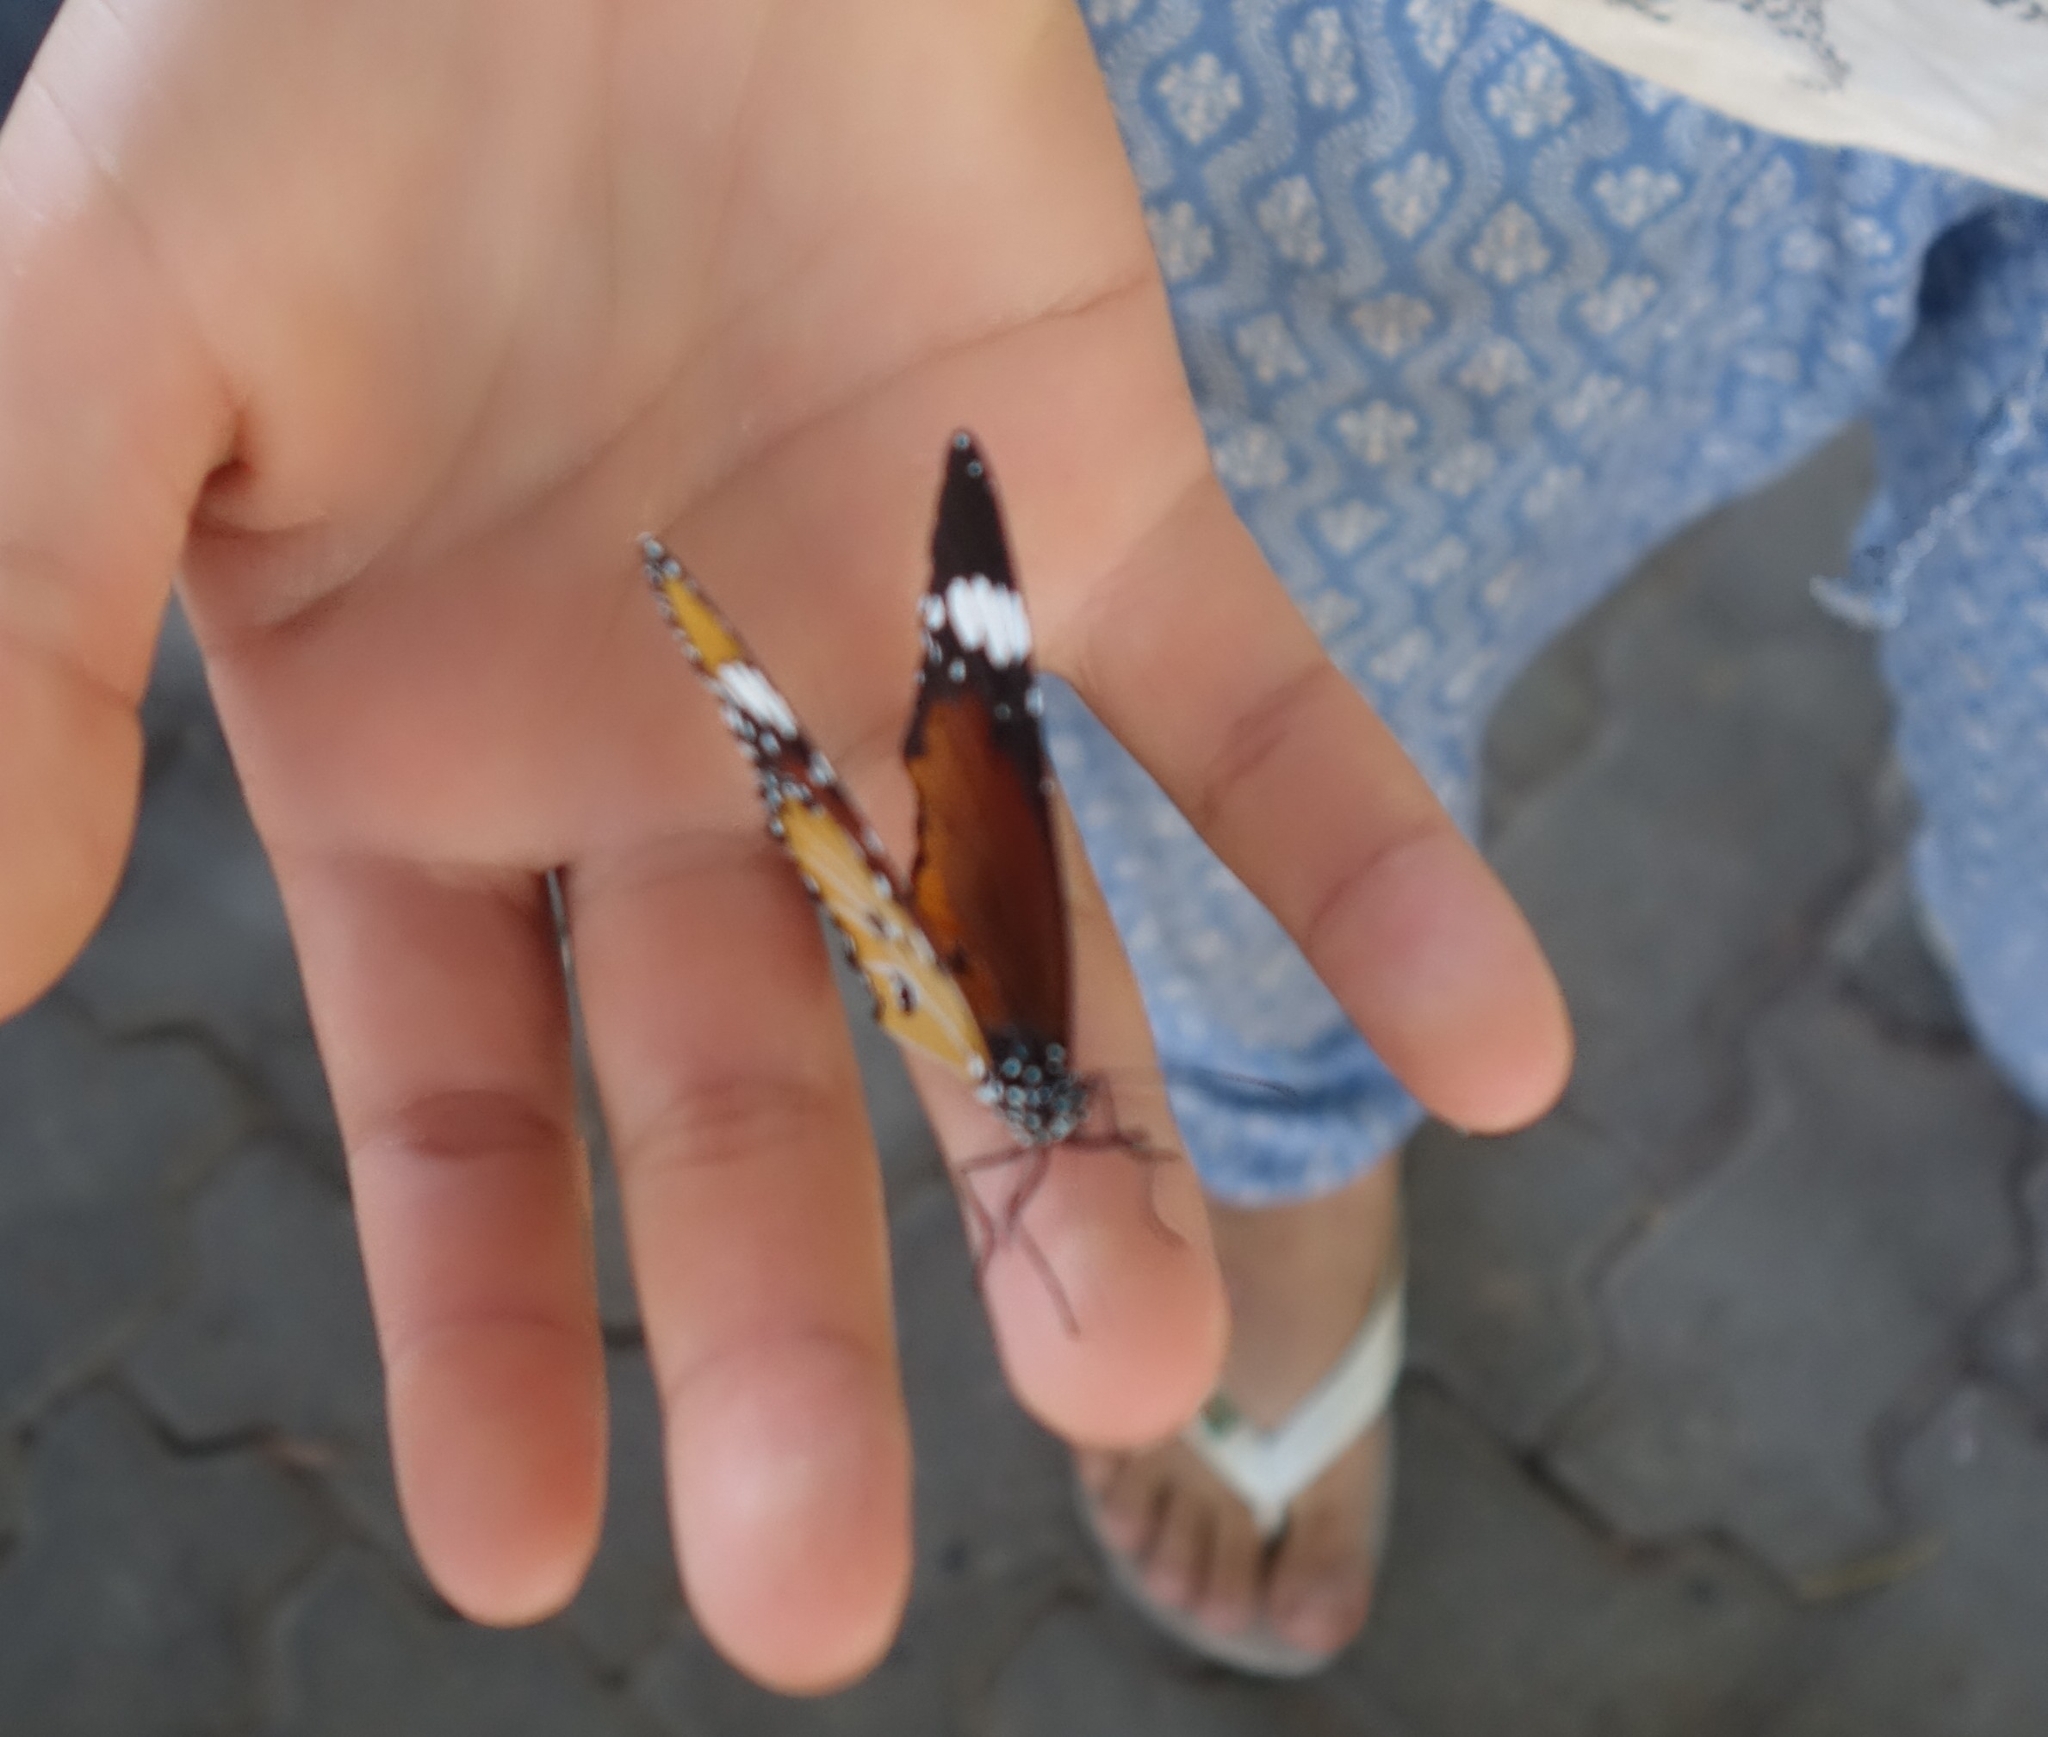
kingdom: Animalia
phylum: Arthropoda
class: Insecta
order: Lepidoptera
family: Nymphalidae
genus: Danaus
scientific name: Danaus chrysippus
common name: Plain tiger
